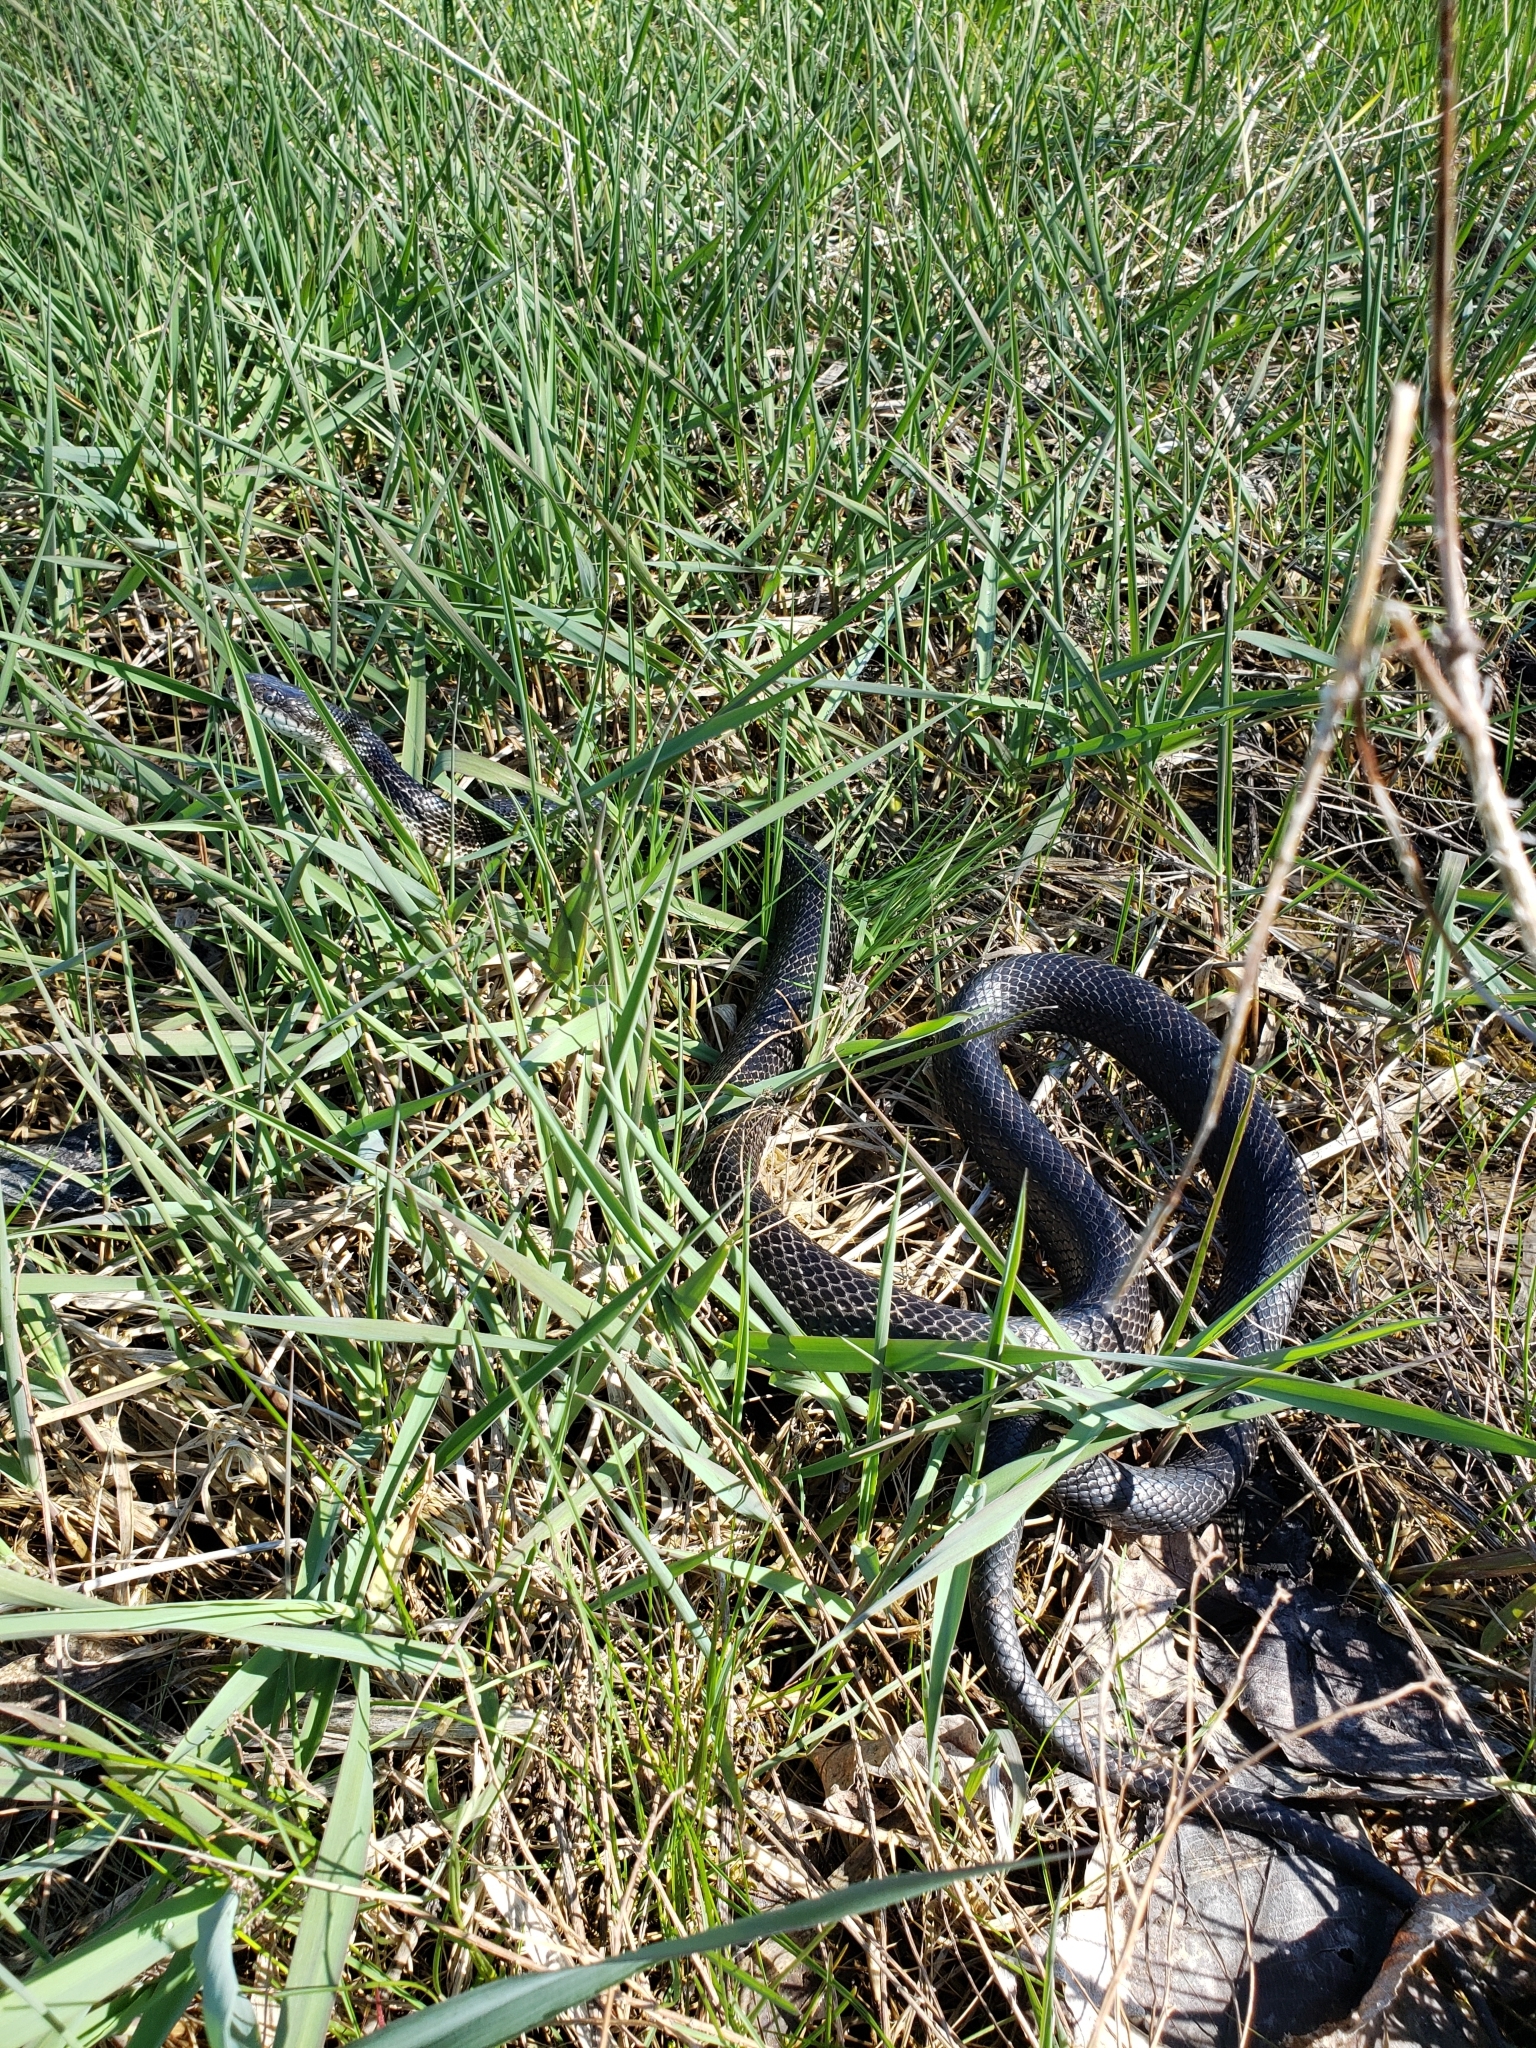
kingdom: Animalia
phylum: Chordata
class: Squamata
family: Colubridae
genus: Pantherophis
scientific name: Pantherophis spiloides
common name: Gray rat snake
